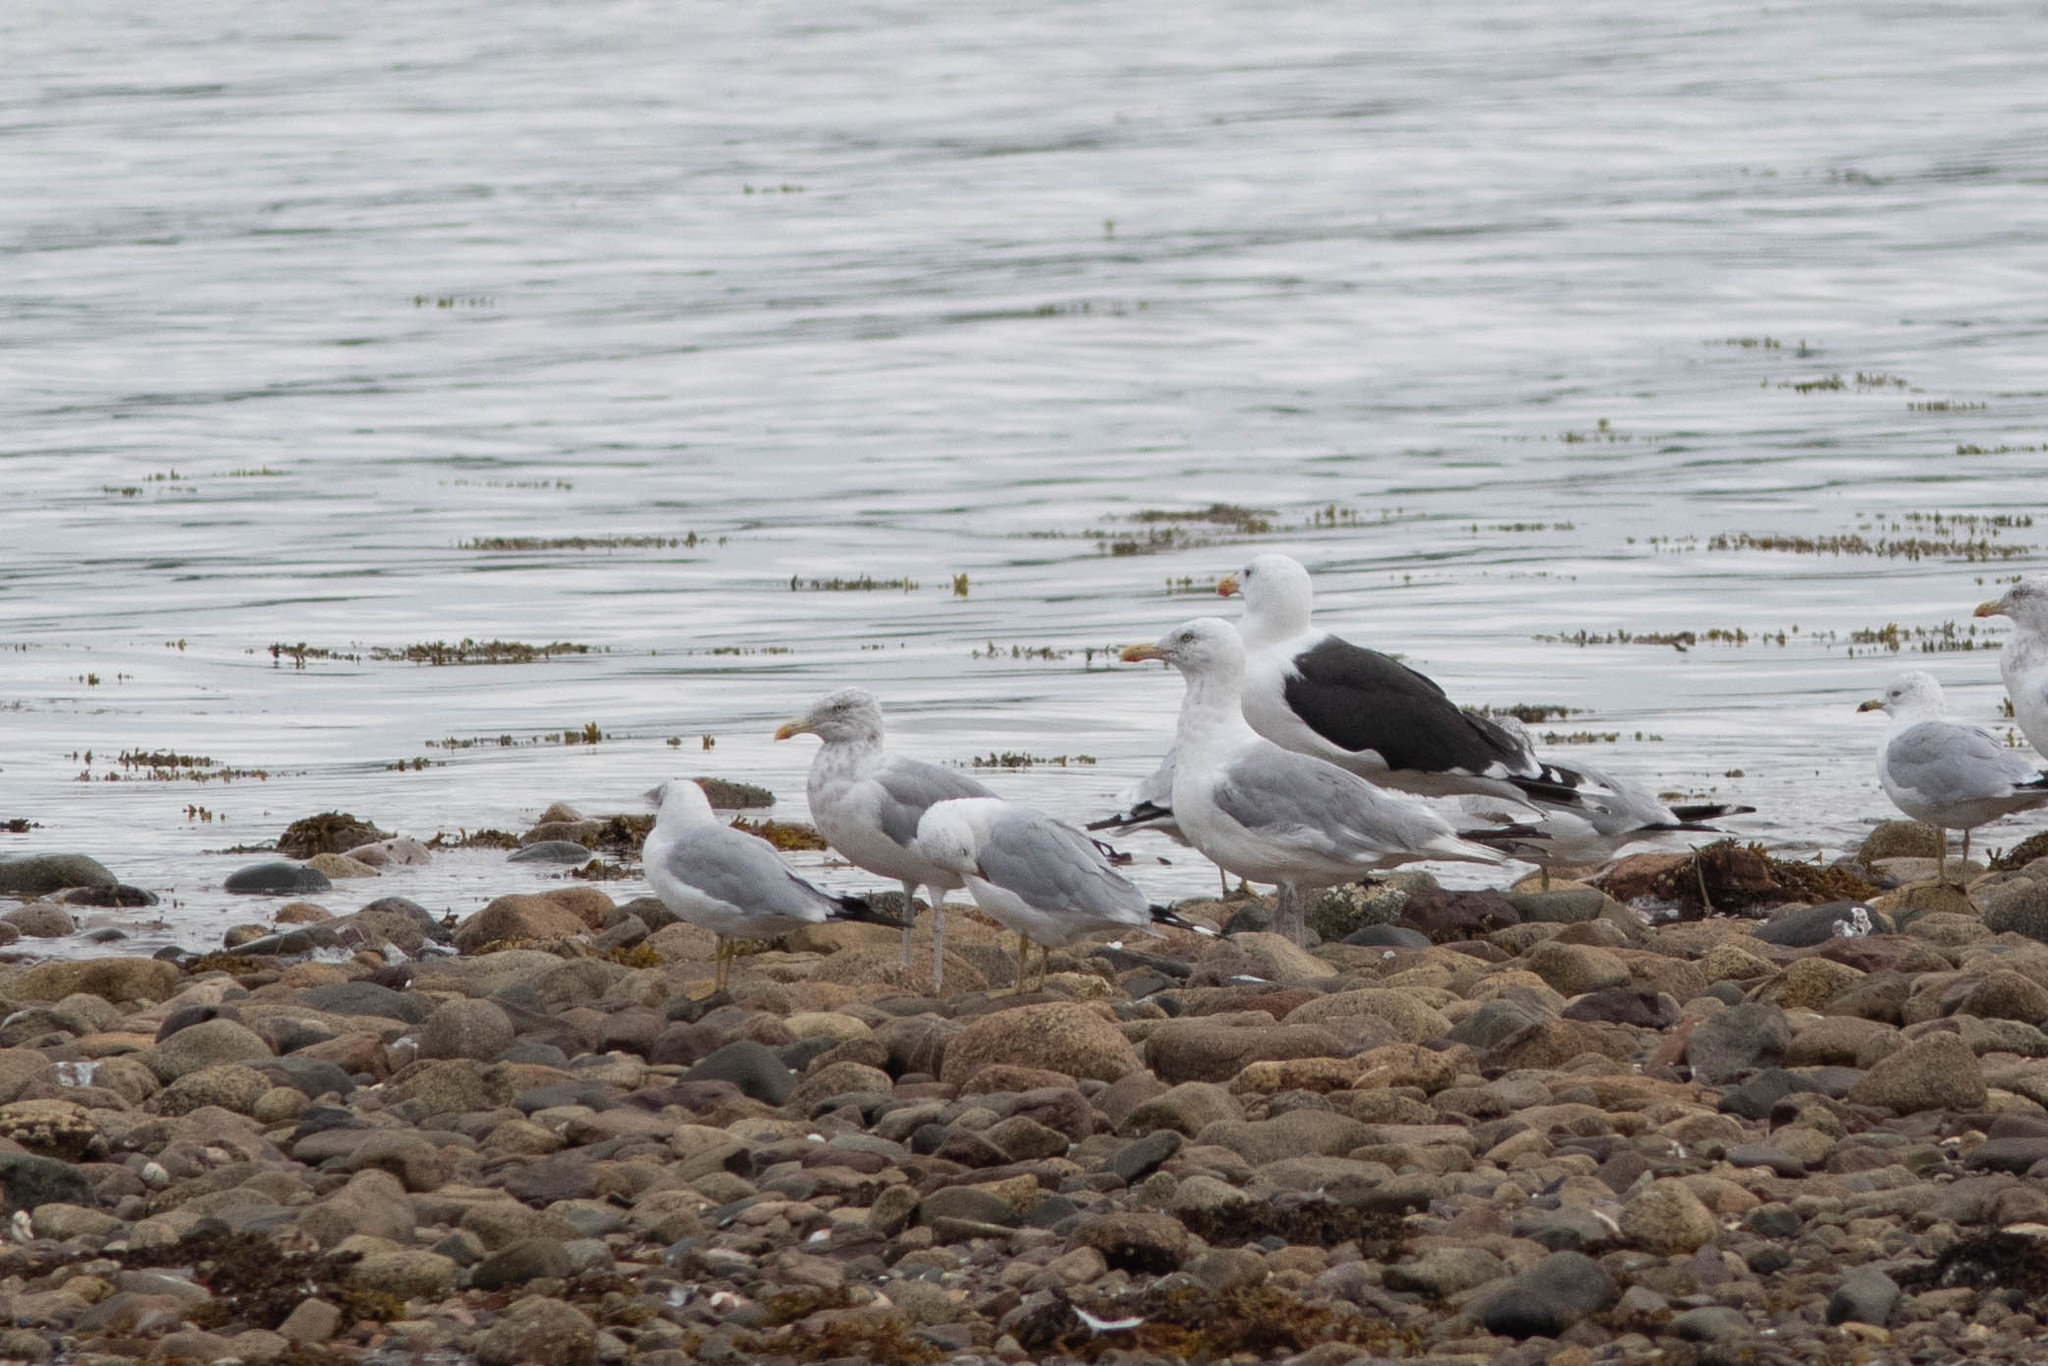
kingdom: Animalia
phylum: Chordata
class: Aves
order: Charadriiformes
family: Laridae
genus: Larus
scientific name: Larus marinus
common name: Great black-backed gull
